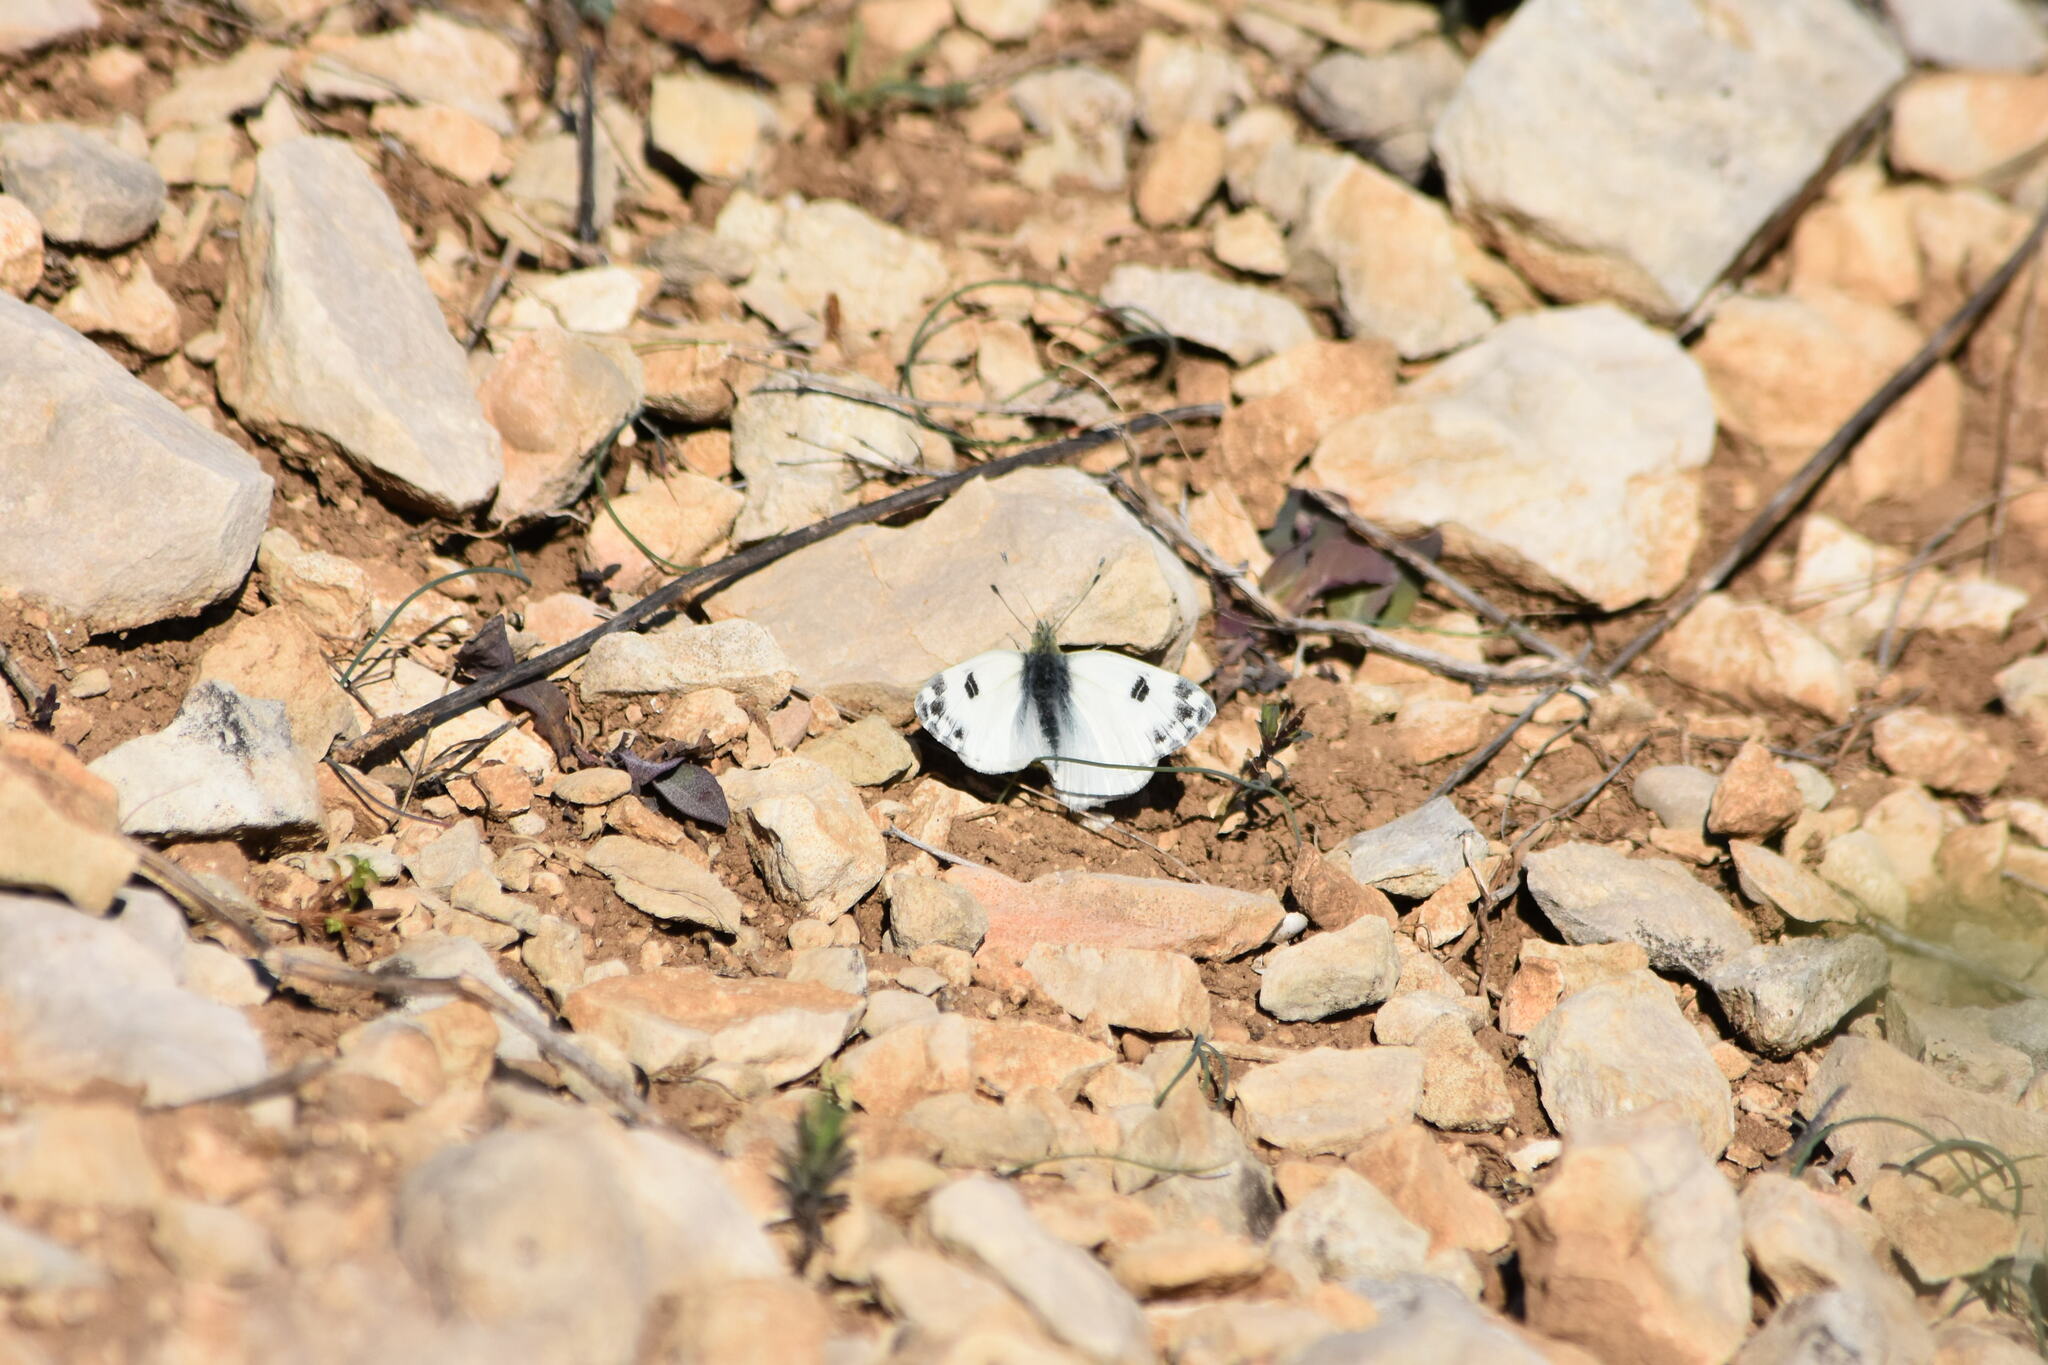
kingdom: Animalia
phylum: Arthropoda
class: Insecta
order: Lepidoptera
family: Pieridae
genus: Pontia
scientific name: Pontia daplidice
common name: Bath white
